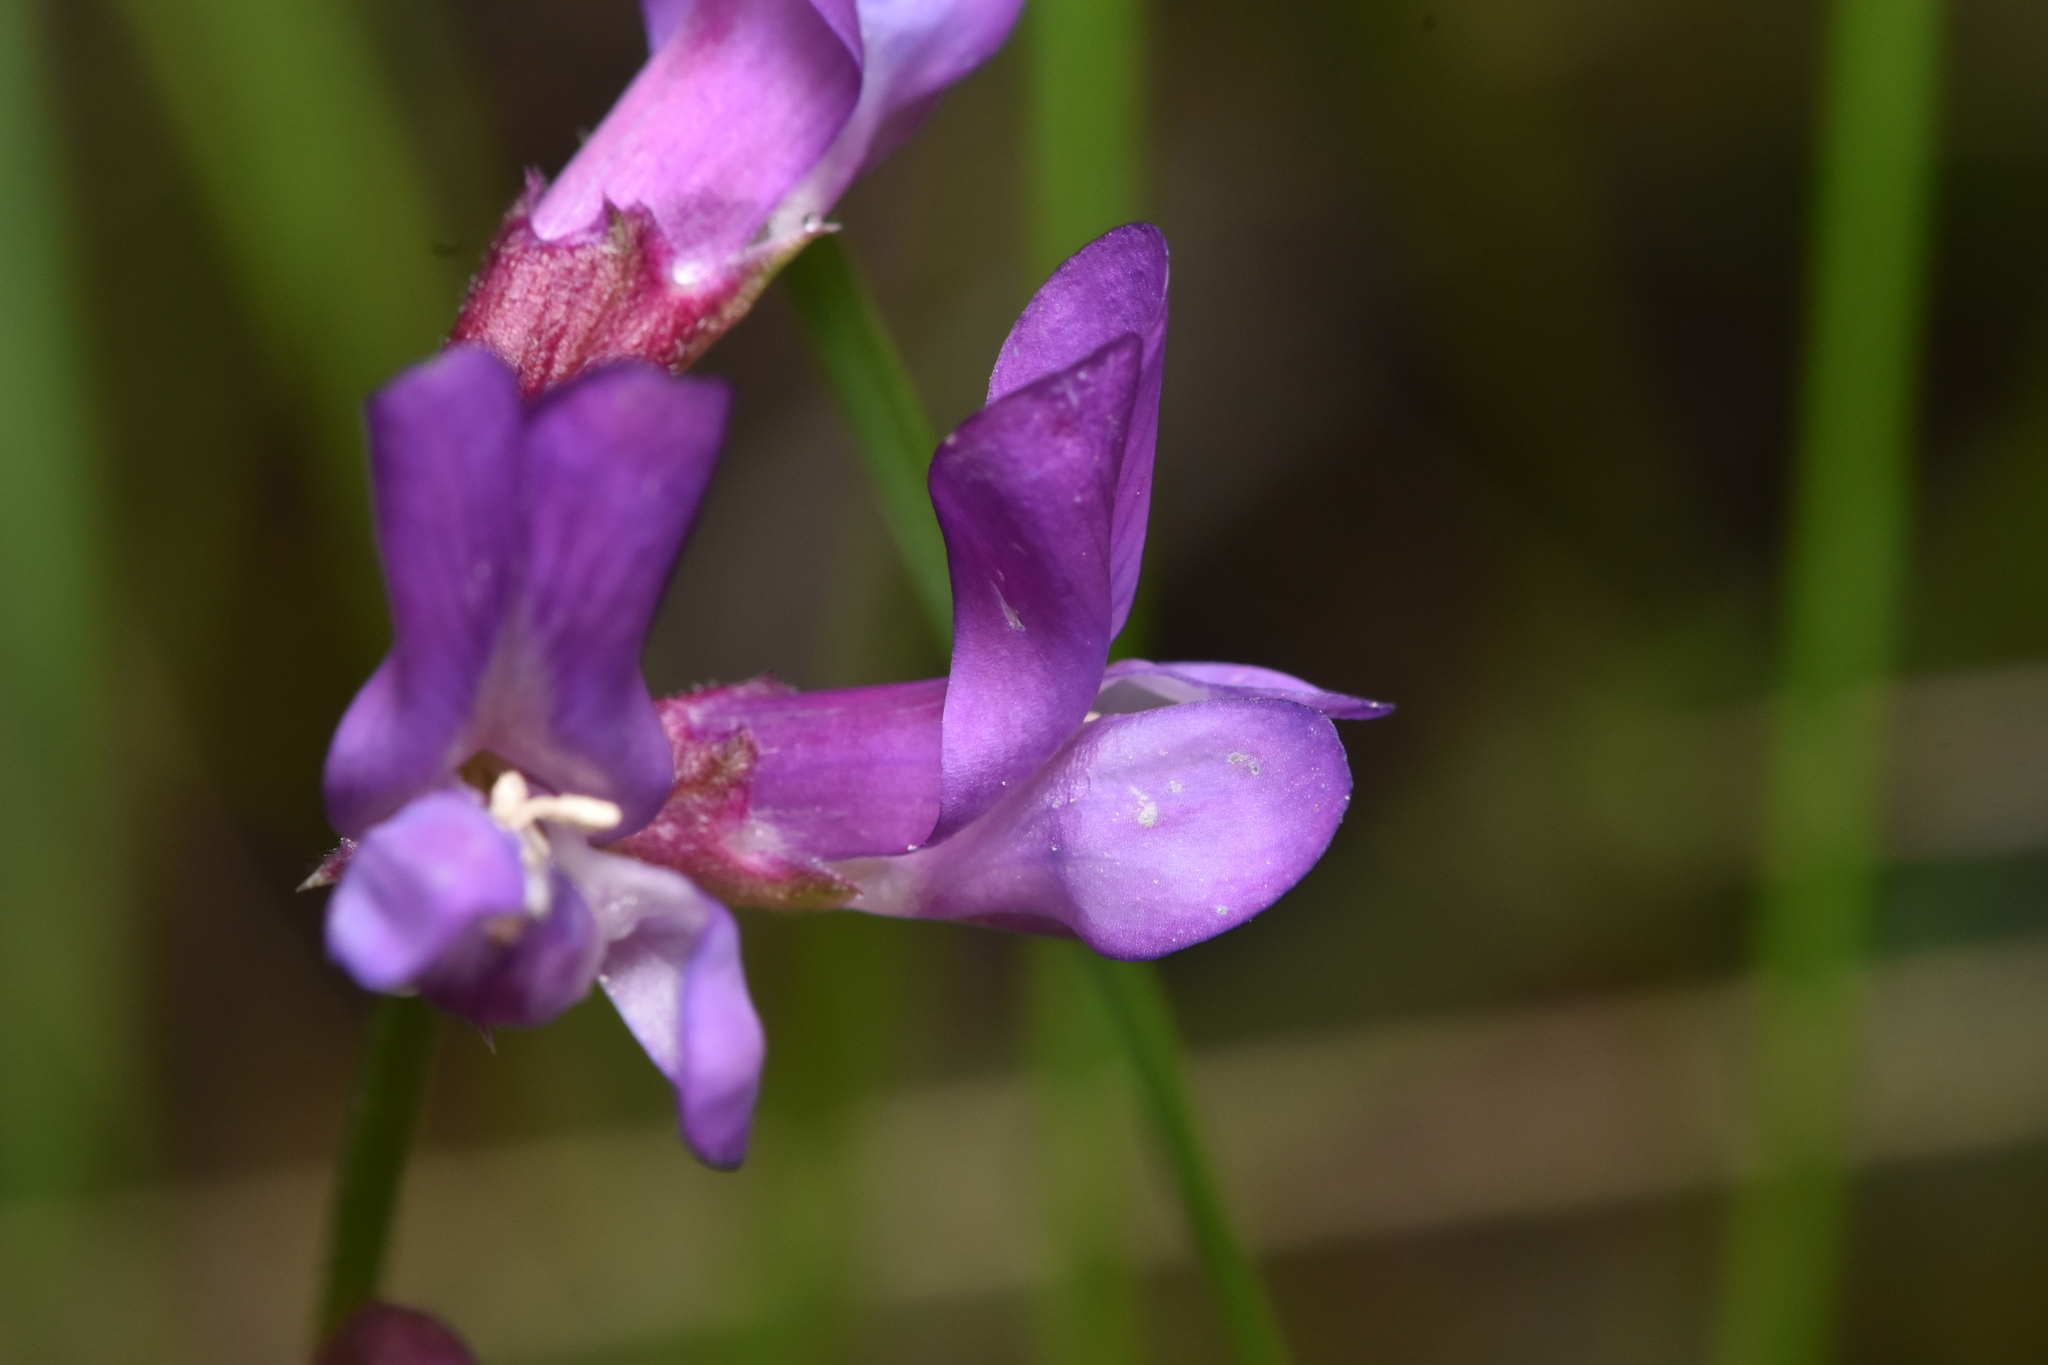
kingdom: Plantae
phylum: Tracheophyta
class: Magnoliopsida
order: Fabales
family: Fabaceae
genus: Vicia
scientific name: Vicia americana
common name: American vetch
